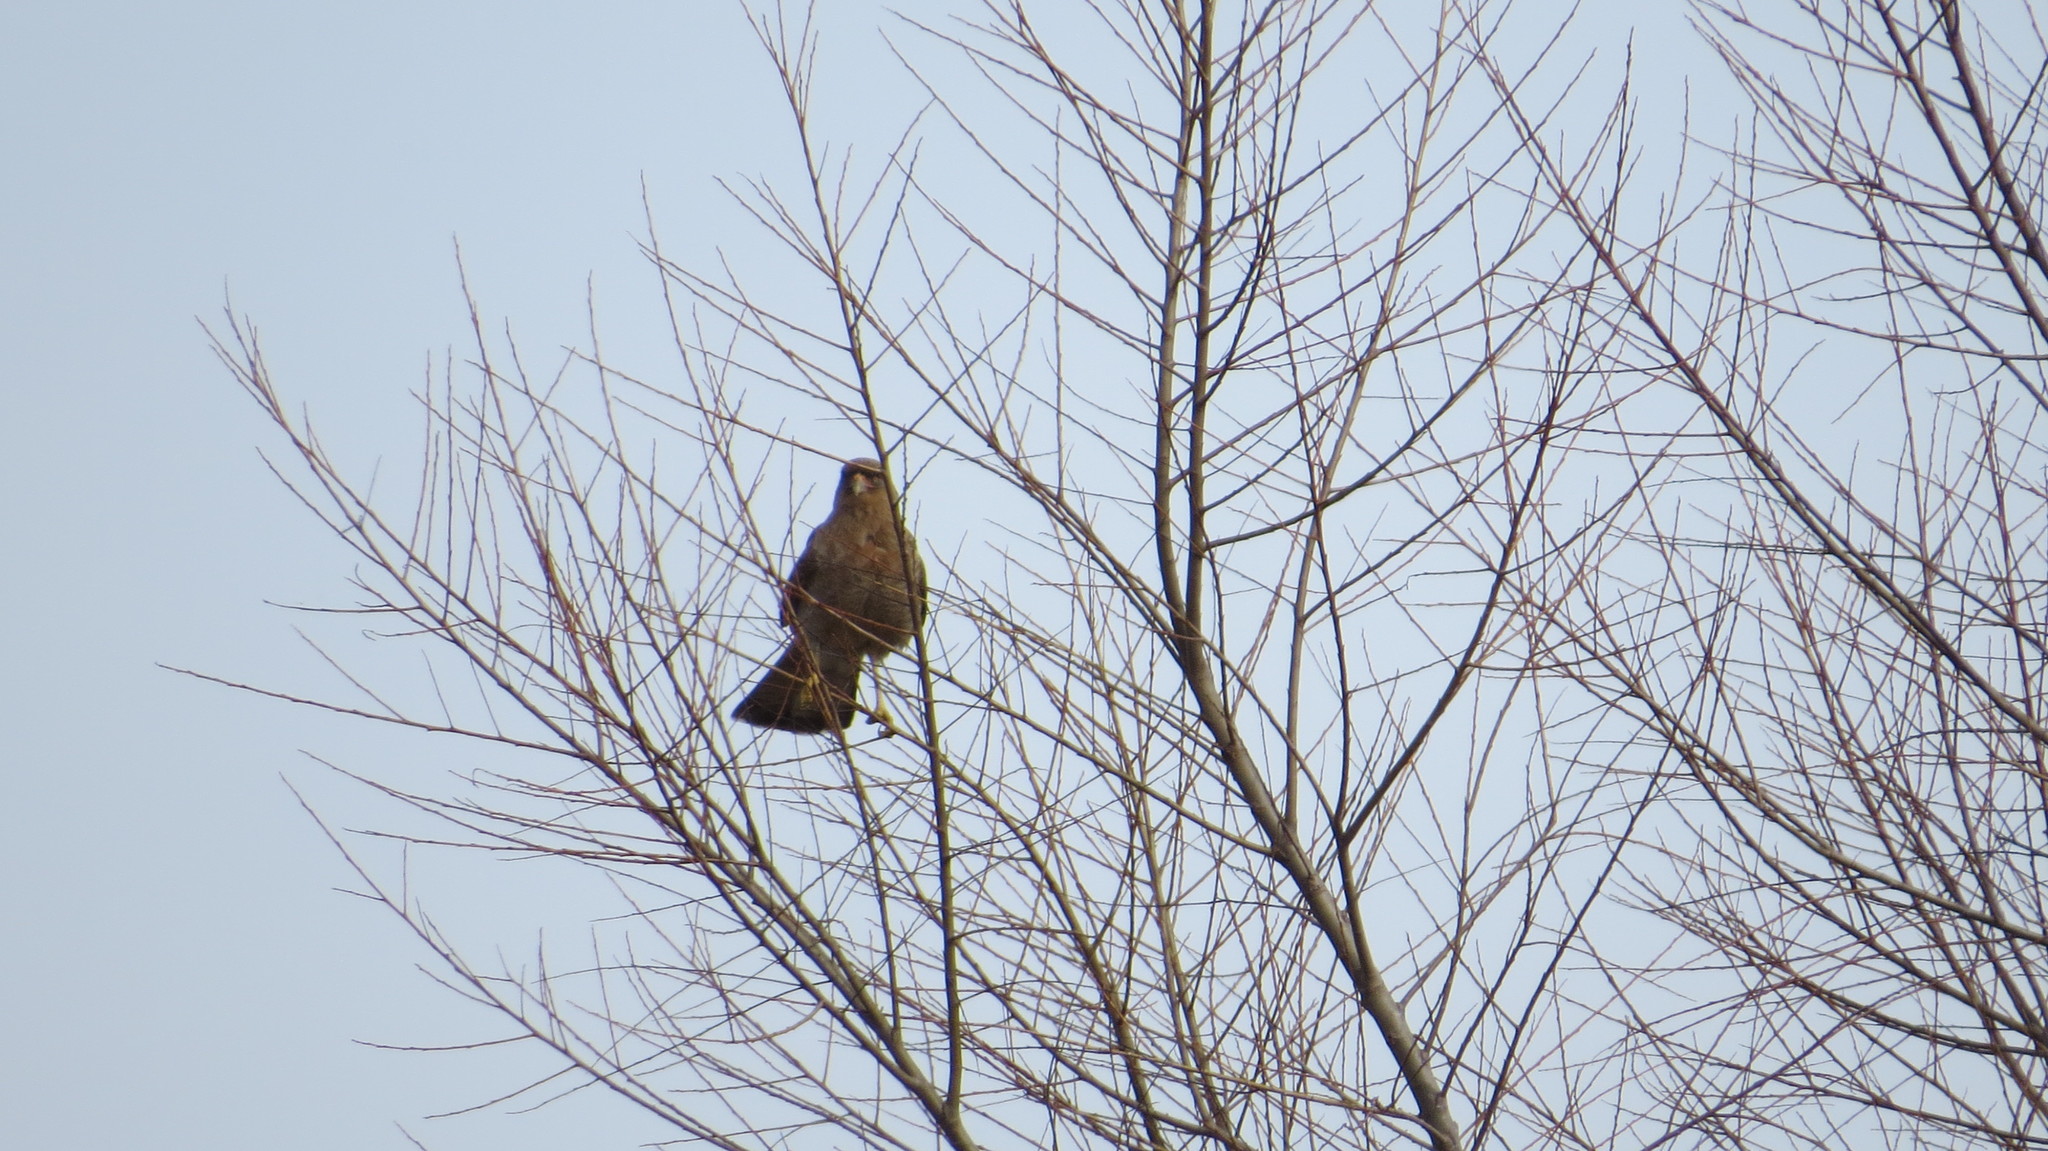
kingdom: Animalia
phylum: Chordata
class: Aves
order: Falconiformes
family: Falconidae
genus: Daptrius
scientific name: Daptrius
